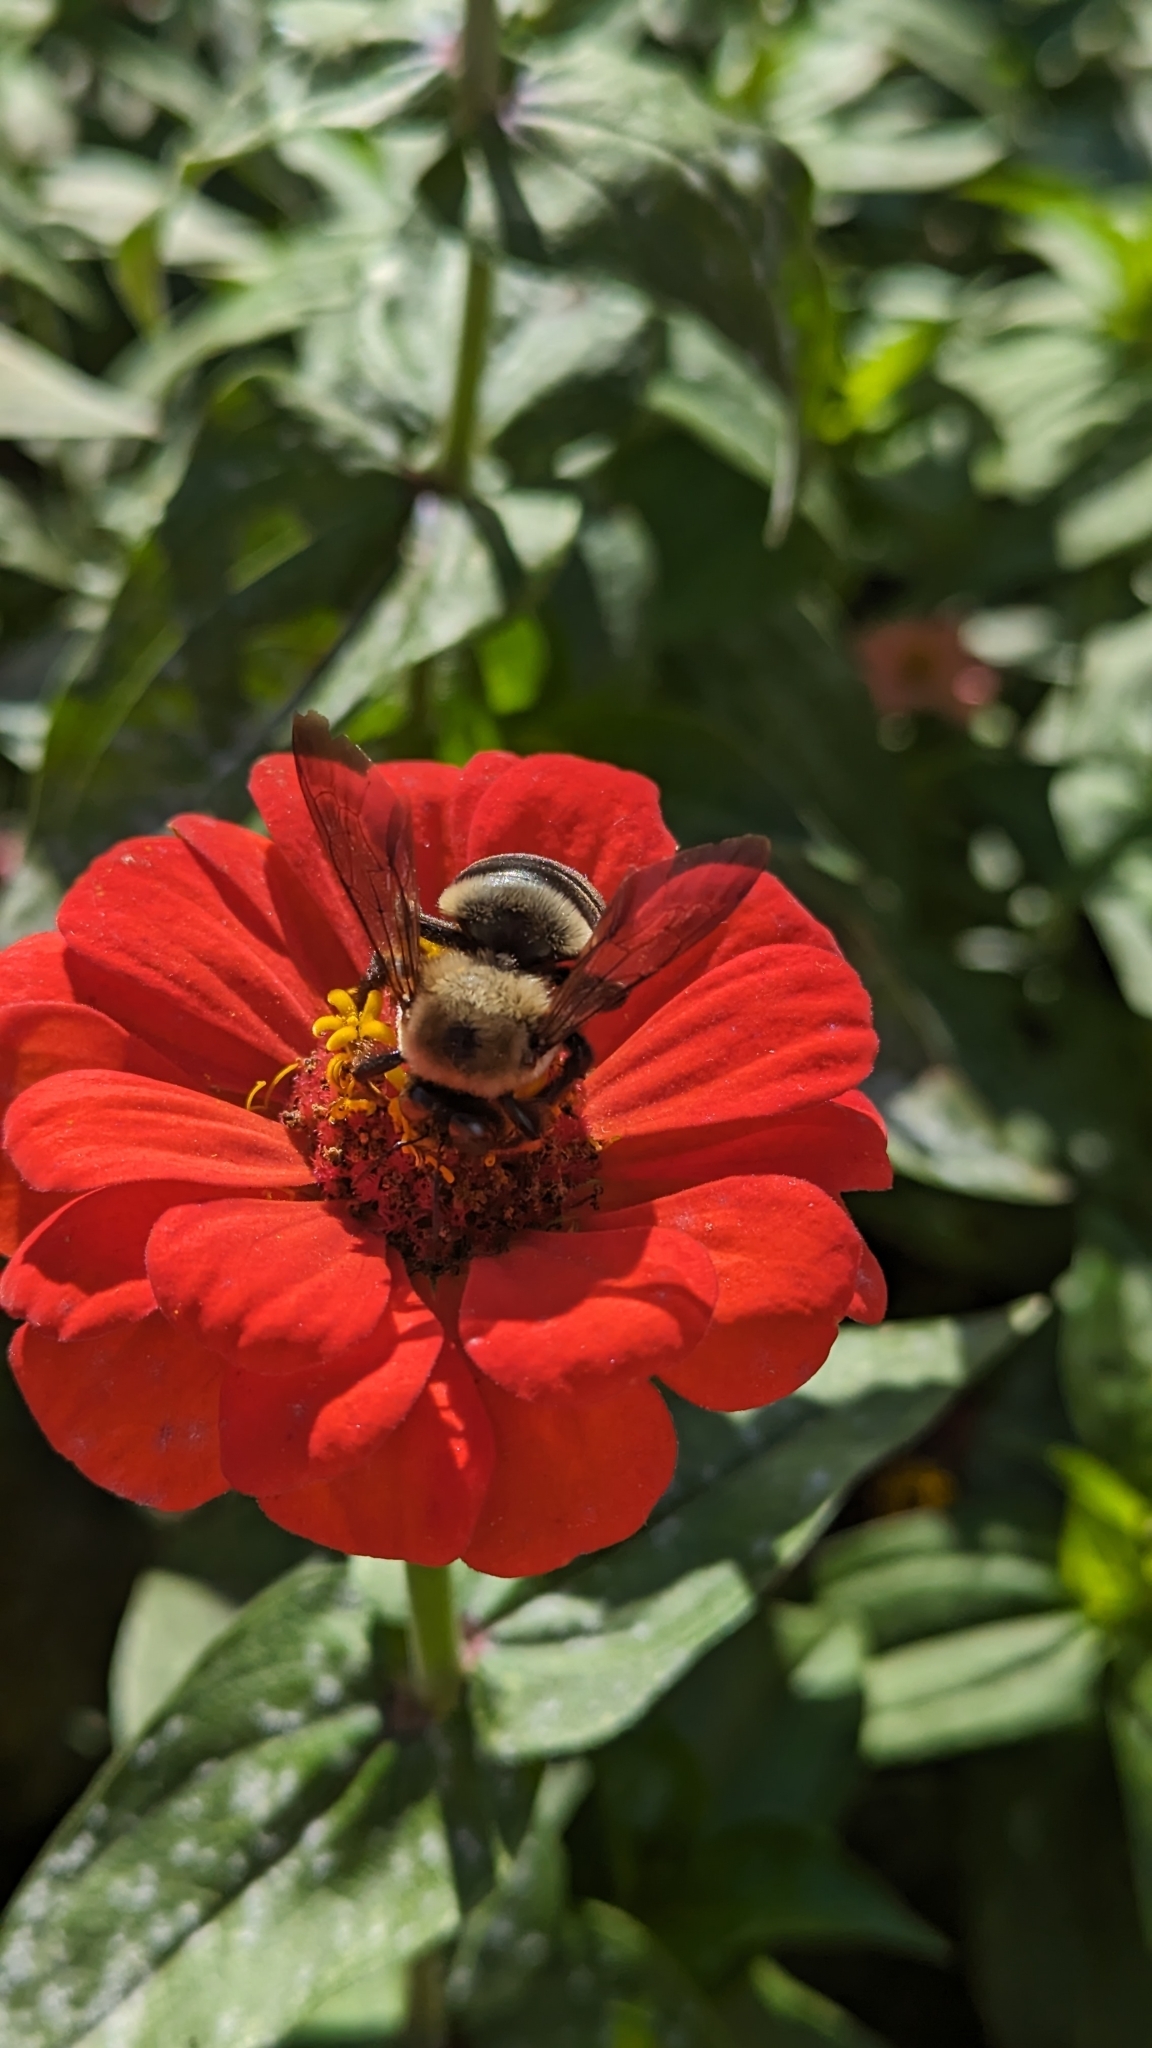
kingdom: Animalia
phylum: Arthropoda
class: Insecta
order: Hymenoptera
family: Apidae
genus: Xylocopa
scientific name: Xylocopa virginica
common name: Carpenter bee
